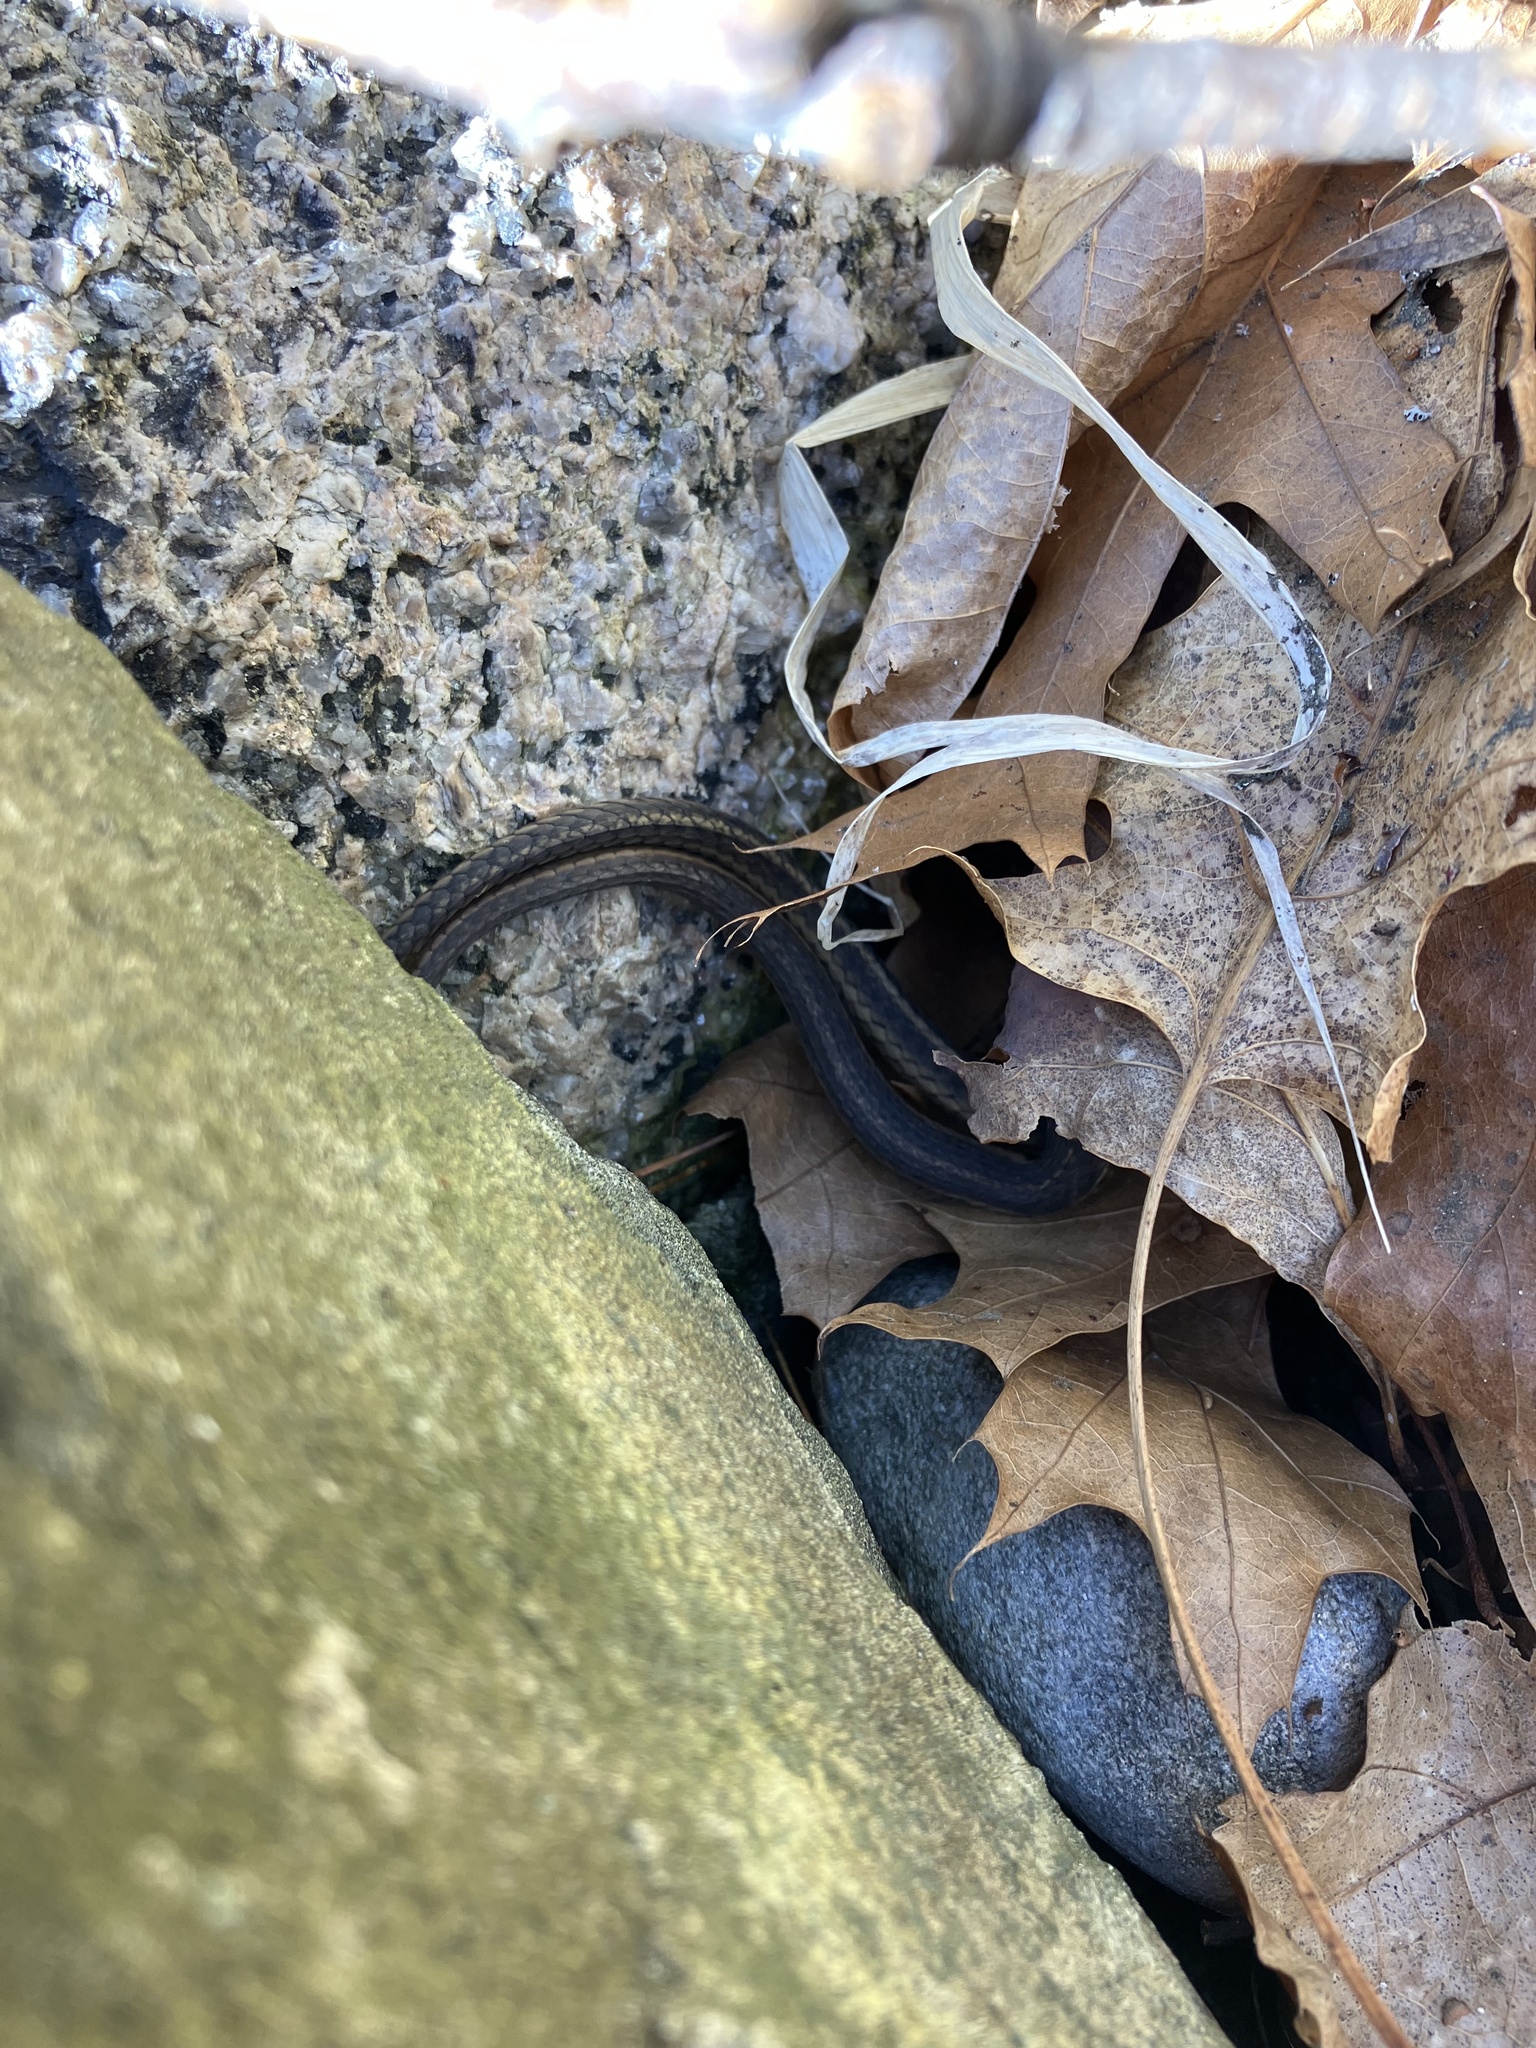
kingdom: Animalia
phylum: Chordata
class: Squamata
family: Colubridae
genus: Thamnophis
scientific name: Thamnophis sirtalis
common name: Common garter snake
